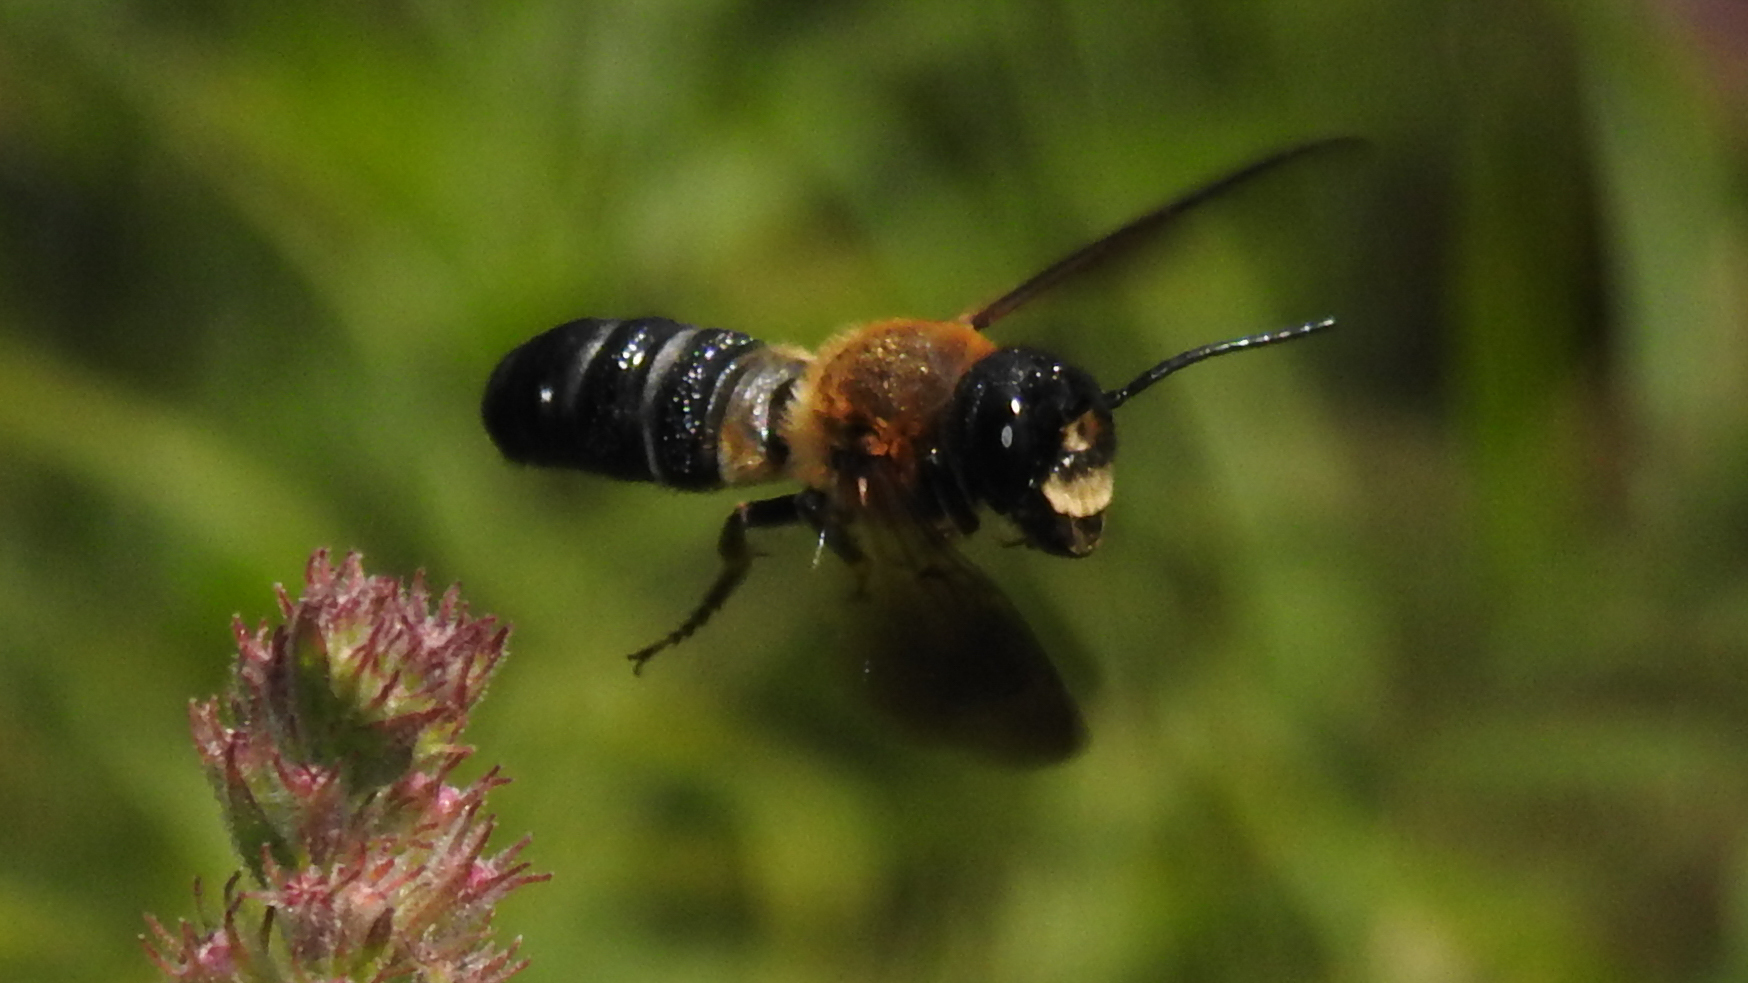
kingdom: Animalia
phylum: Arthropoda
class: Insecta
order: Hymenoptera
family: Megachilidae
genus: Megachile
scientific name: Megachile sculpturalis
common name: Sculptured resin bee
